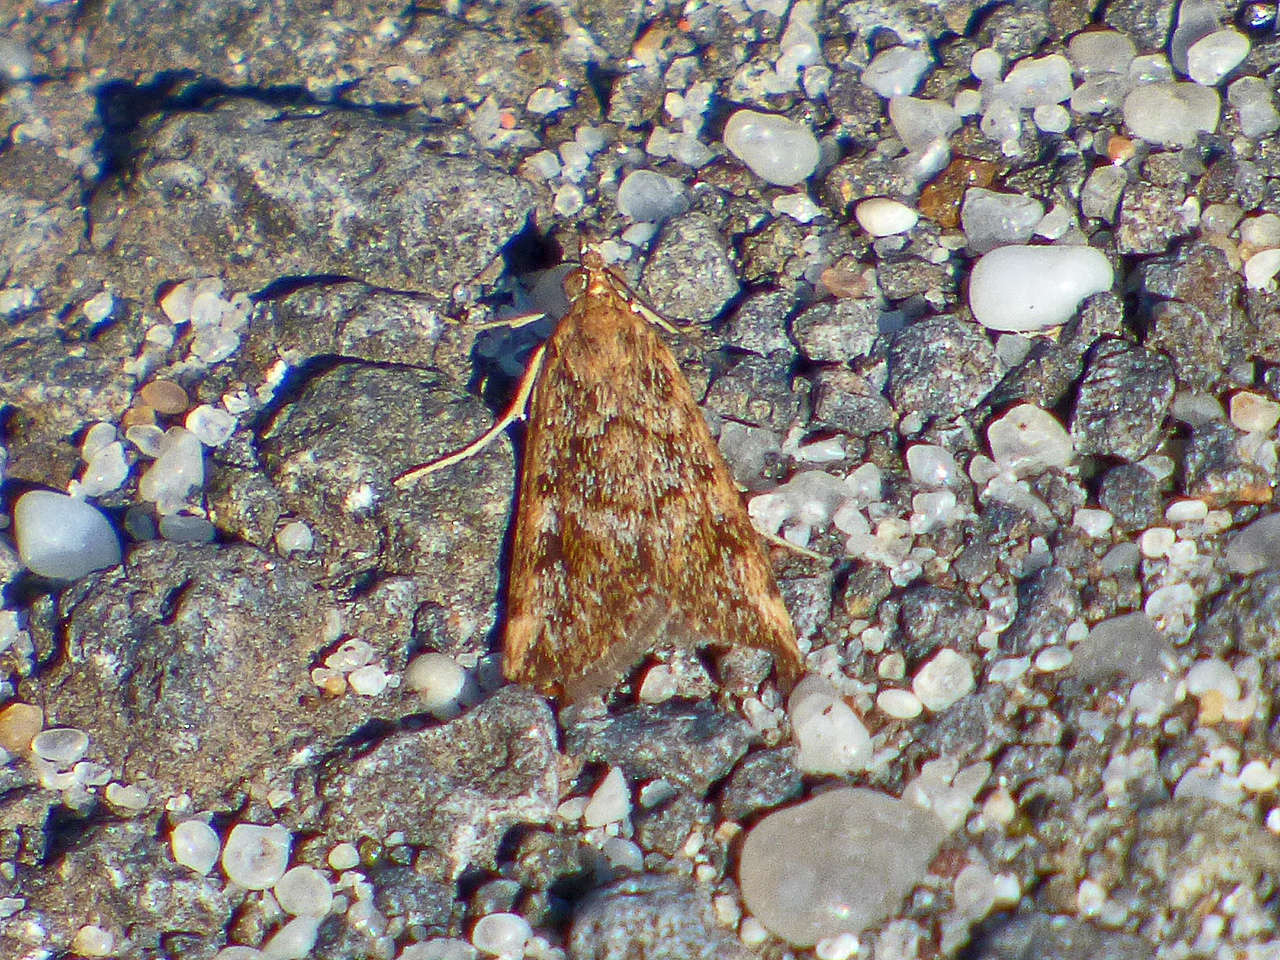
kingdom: Animalia
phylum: Arthropoda
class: Insecta
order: Lepidoptera
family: Crambidae
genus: Achyra
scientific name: Achyra affinitalis
